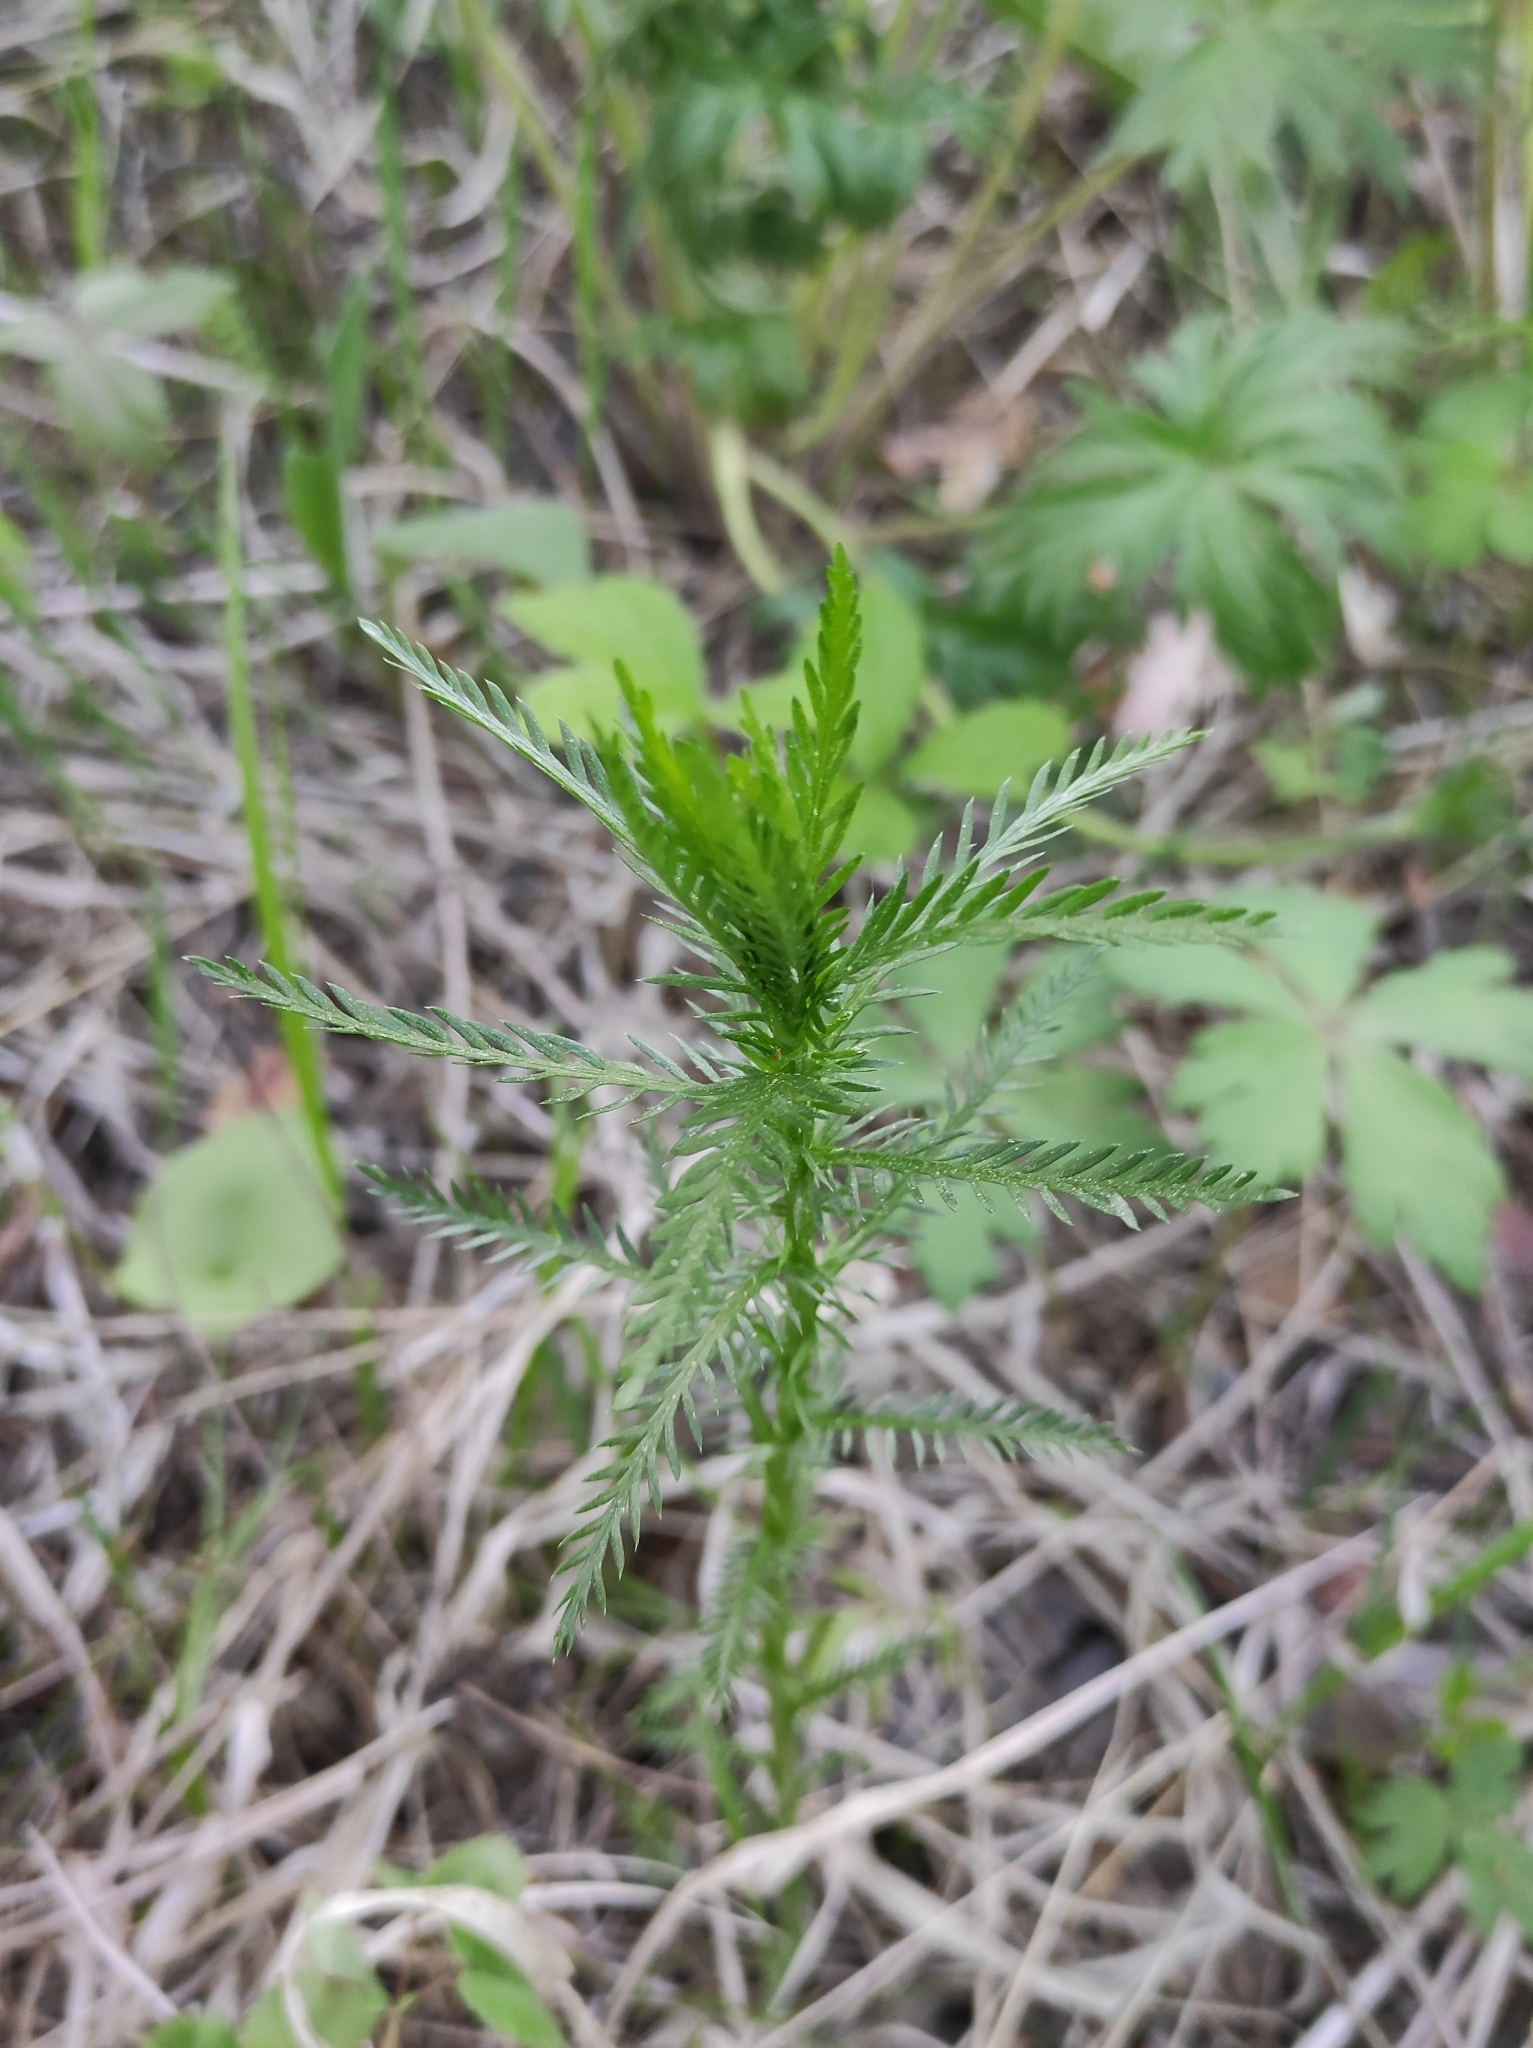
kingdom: Plantae
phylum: Tracheophyta
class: Magnoliopsida
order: Asterales
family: Asteraceae
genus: Achillea
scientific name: Achillea impatiens
